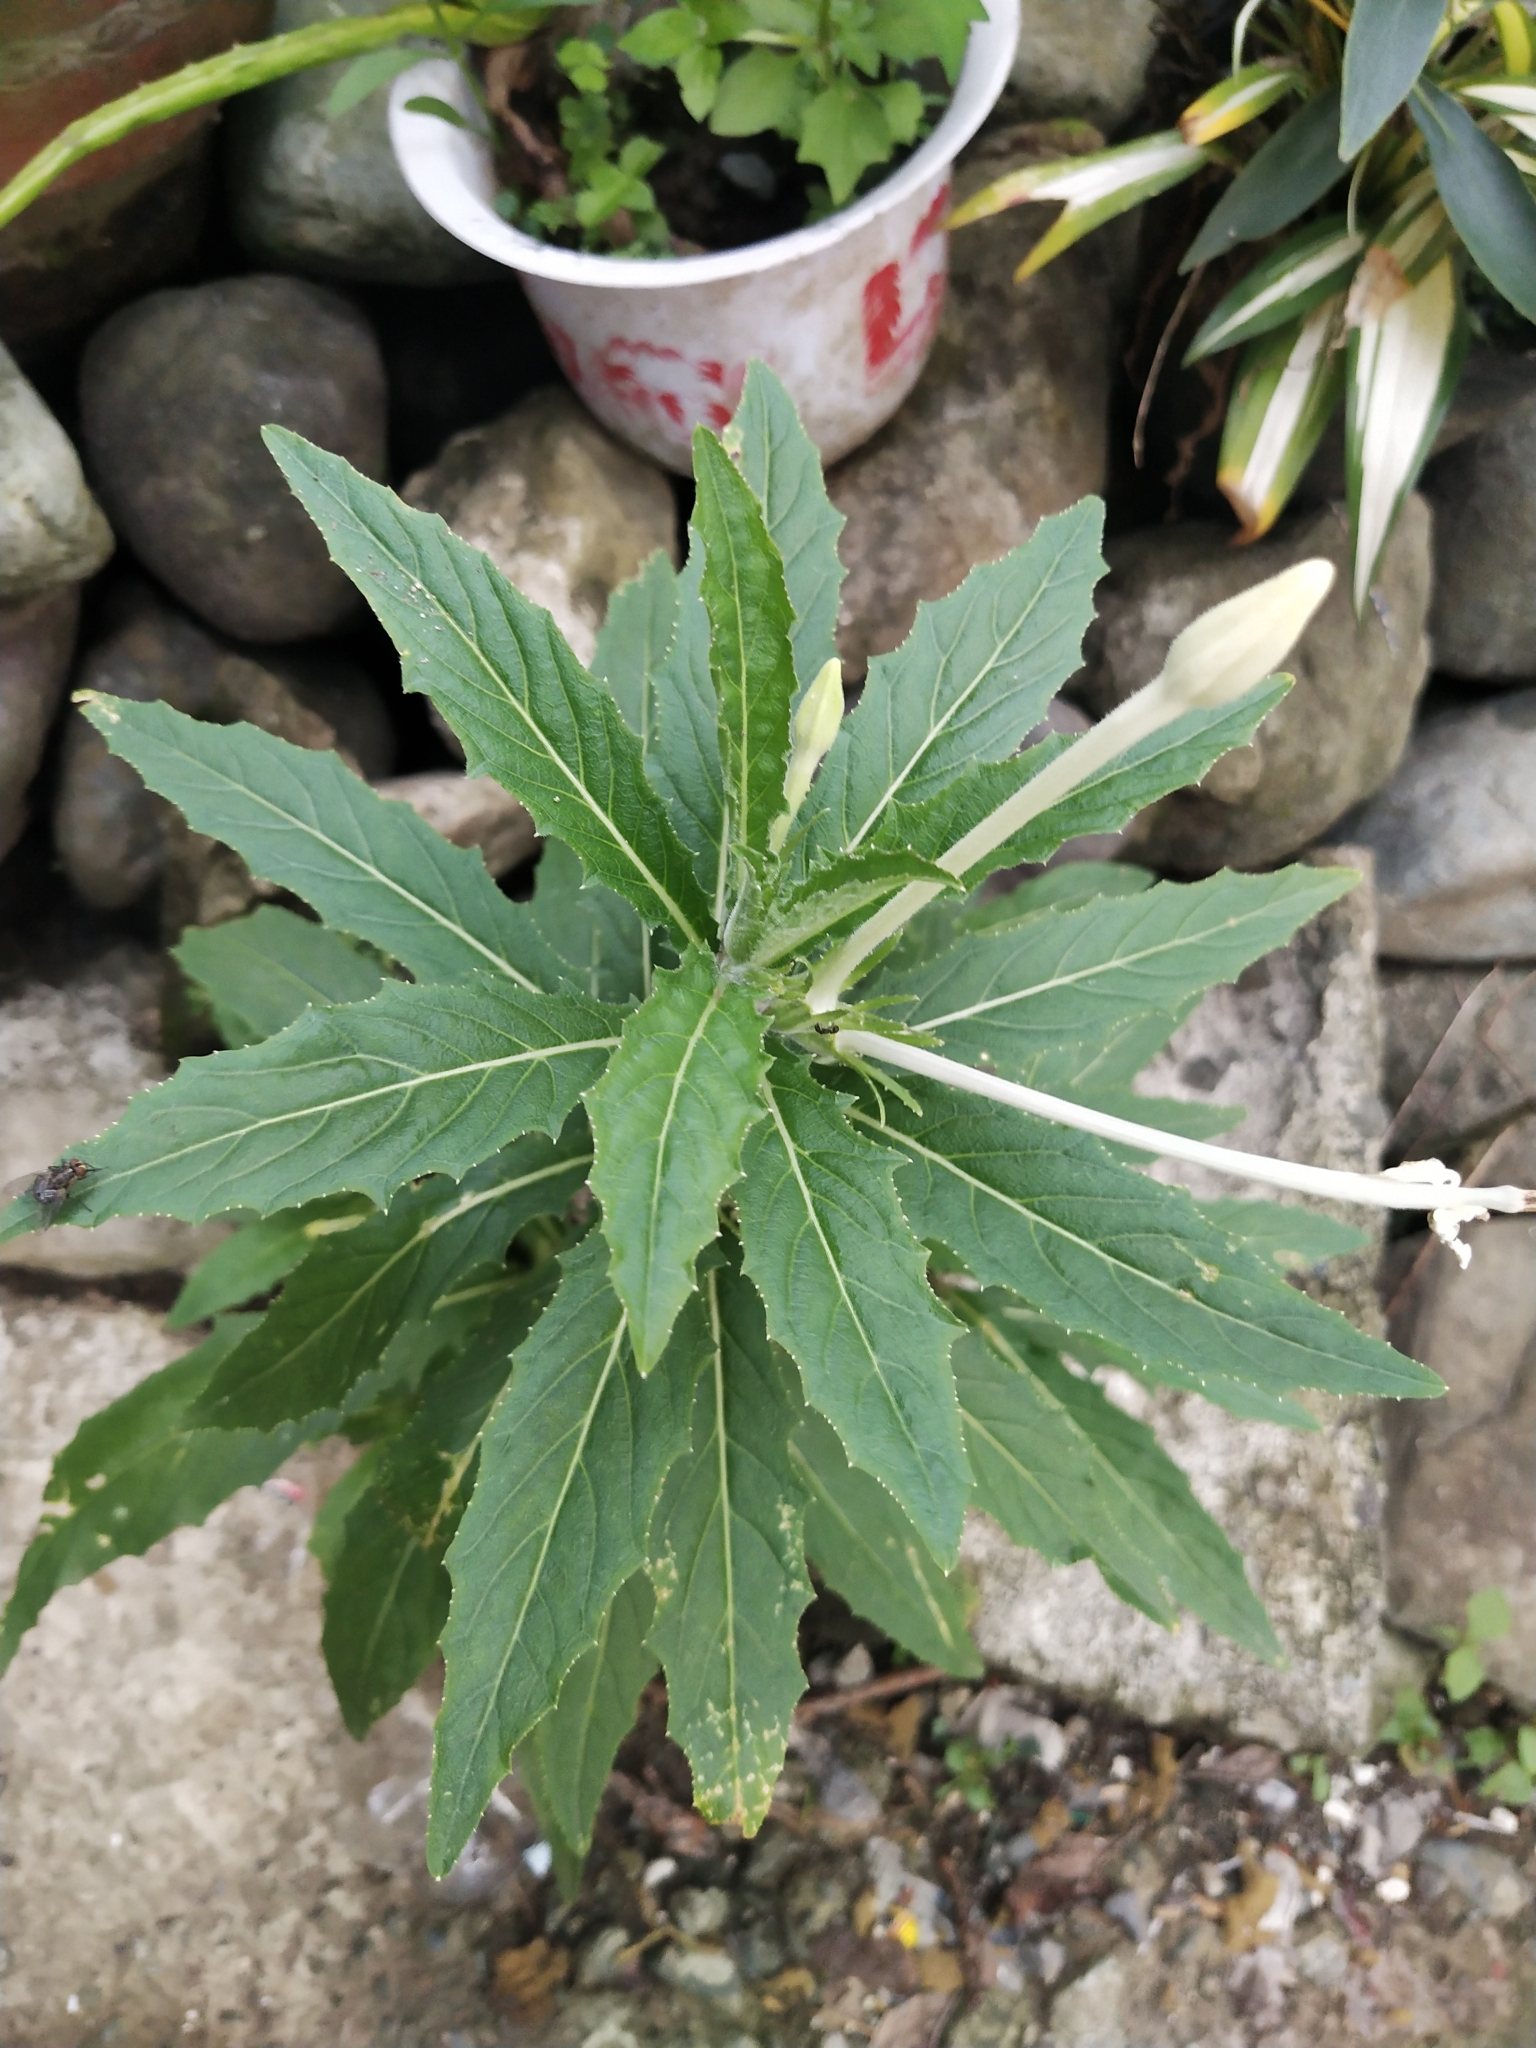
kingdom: Plantae
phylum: Tracheophyta
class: Magnoliopsida
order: Asterales
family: Campanulaceae
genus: Hippobroma
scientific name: Hippobroma longiflora
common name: Madamfate
